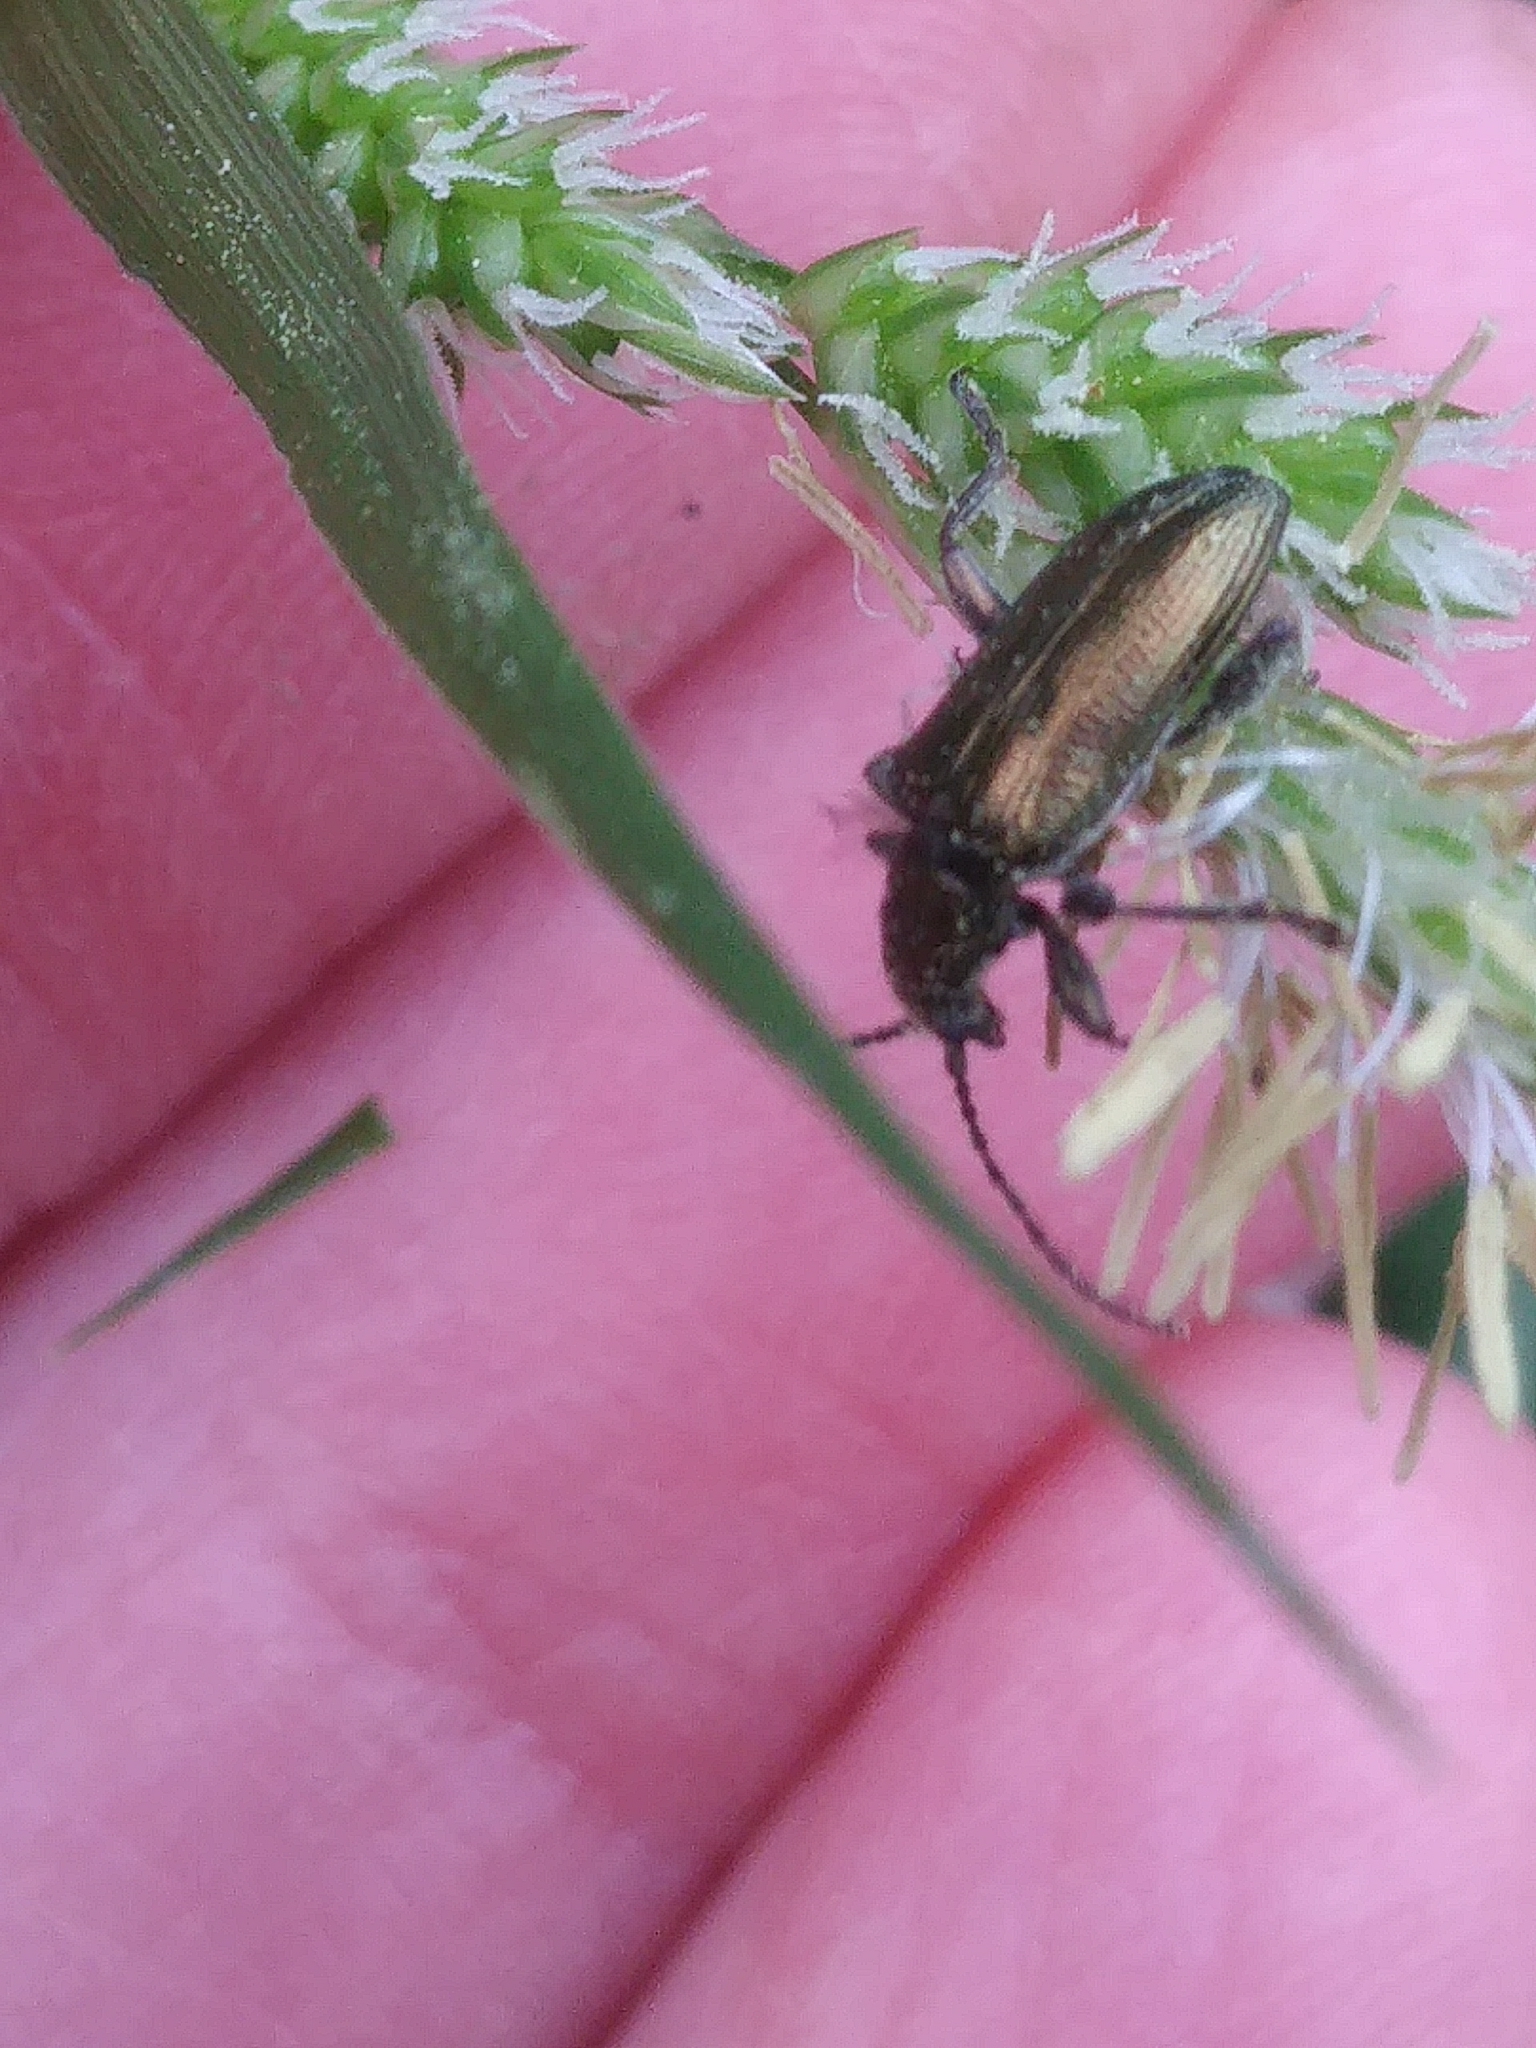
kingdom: Animalia
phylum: Arthropoda
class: Insecta
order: Coleoptera
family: Chrysomelidae
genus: Plateumaris
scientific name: Plateumaris
